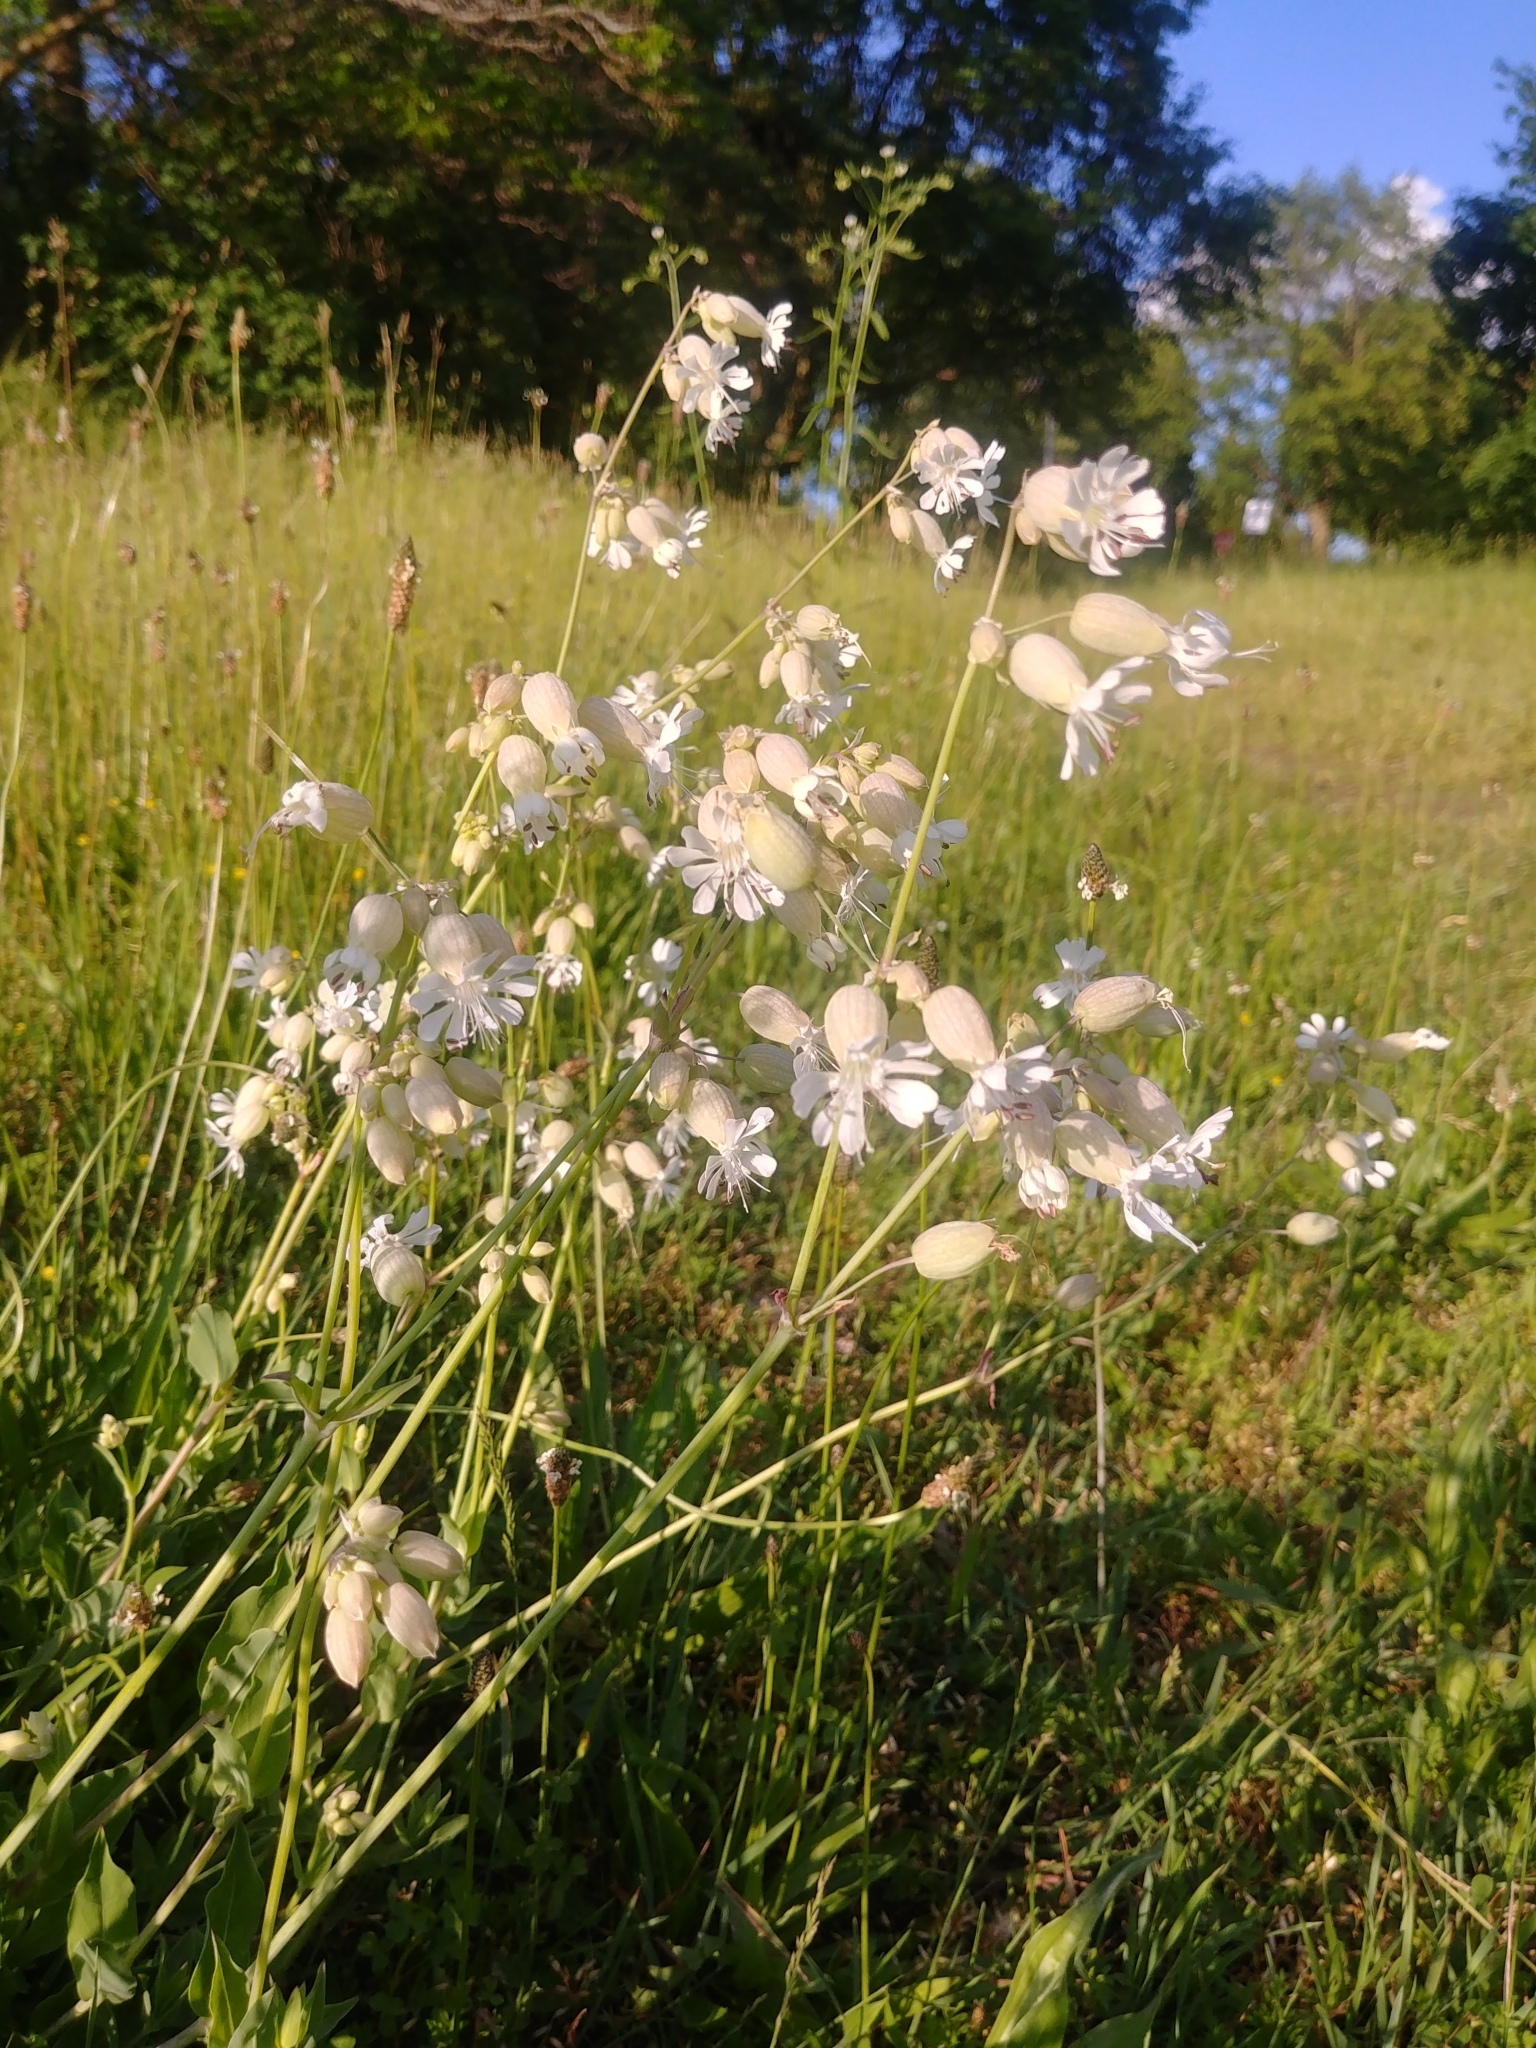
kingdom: Plantae
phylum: Tracheophyta
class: Magnoliopsida
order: Caryophyllales
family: Caryophyllaceae
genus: Silene
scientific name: Silene vulgaris
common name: Bladder campion
